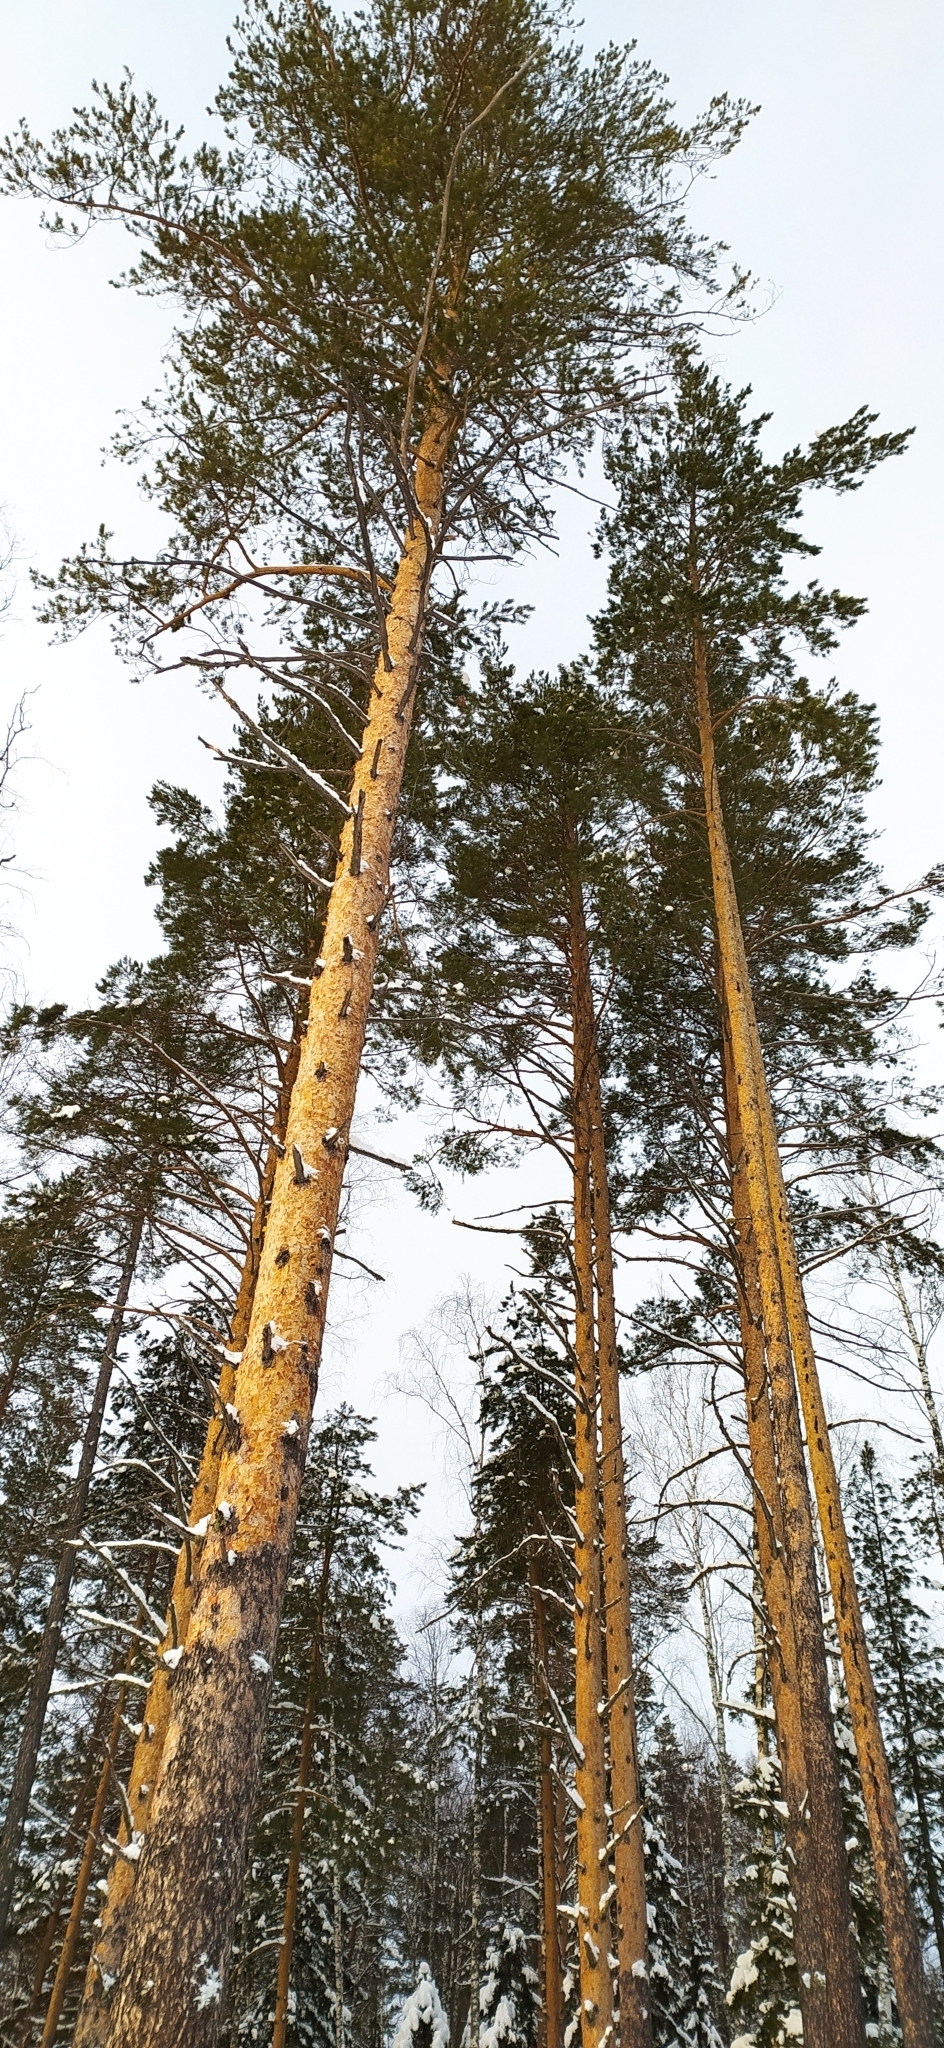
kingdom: Plantae
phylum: Tracheophyta
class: Pinopsida
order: Pinales
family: Pinaceae
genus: Pinus
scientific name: Pinus sylvestris
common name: Scots pine
